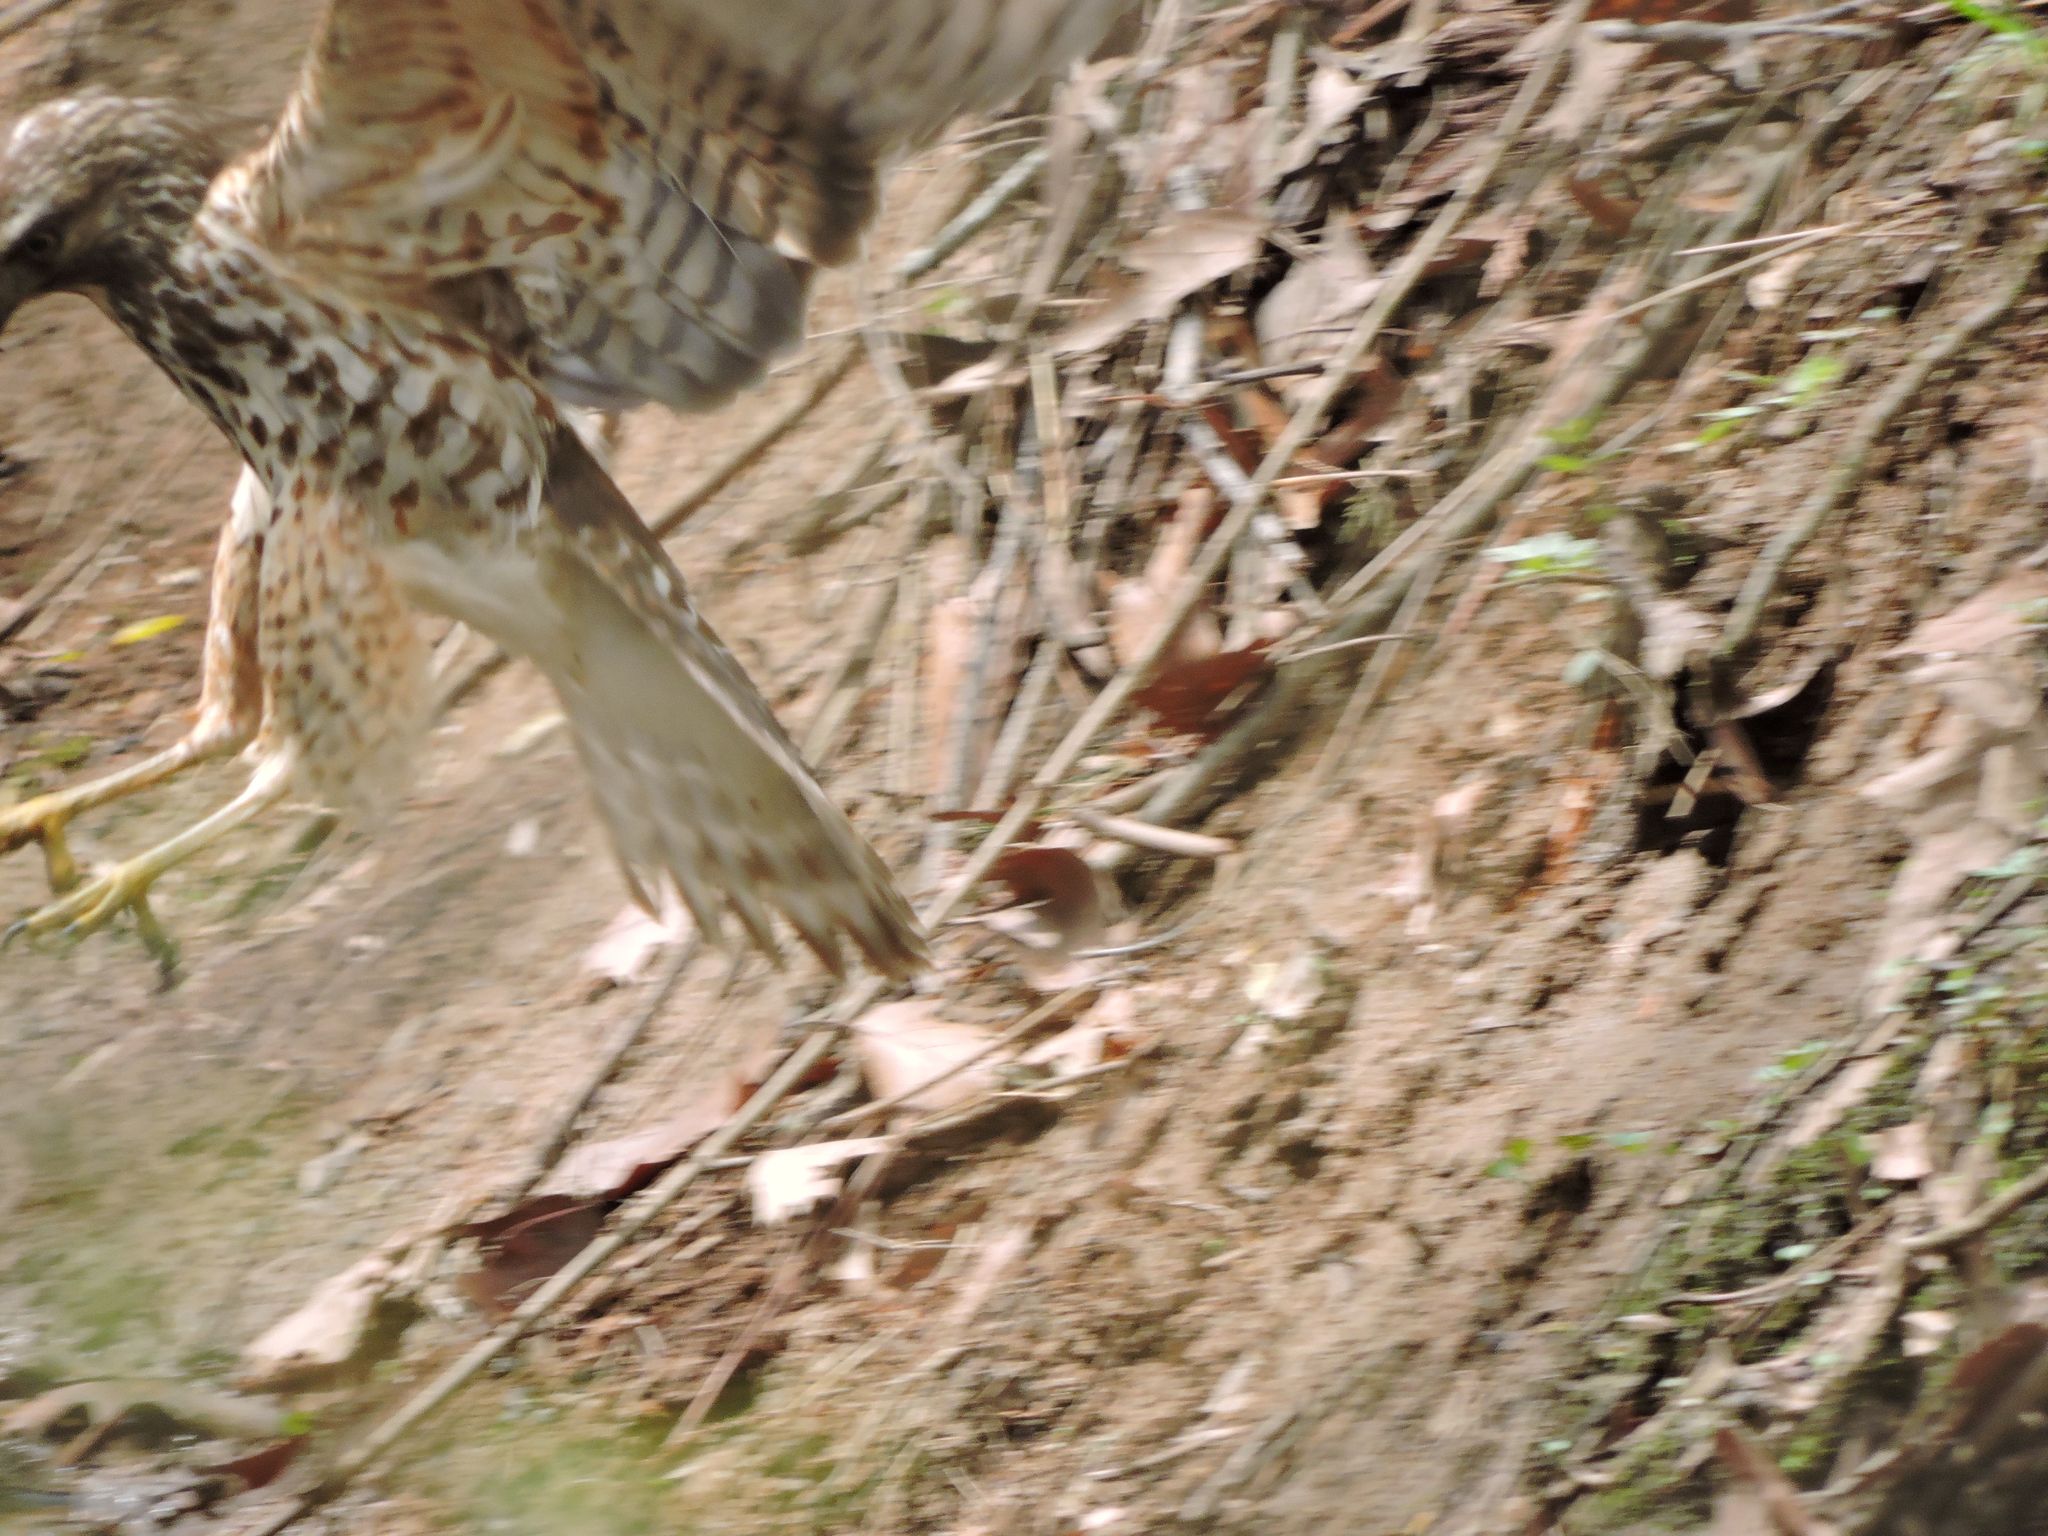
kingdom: Animalia
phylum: Chordata
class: Aves
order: Accipitriformes
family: Accipitridae
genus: Buteo
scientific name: Buteo jamaicensis
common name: Red-tailed hawk
